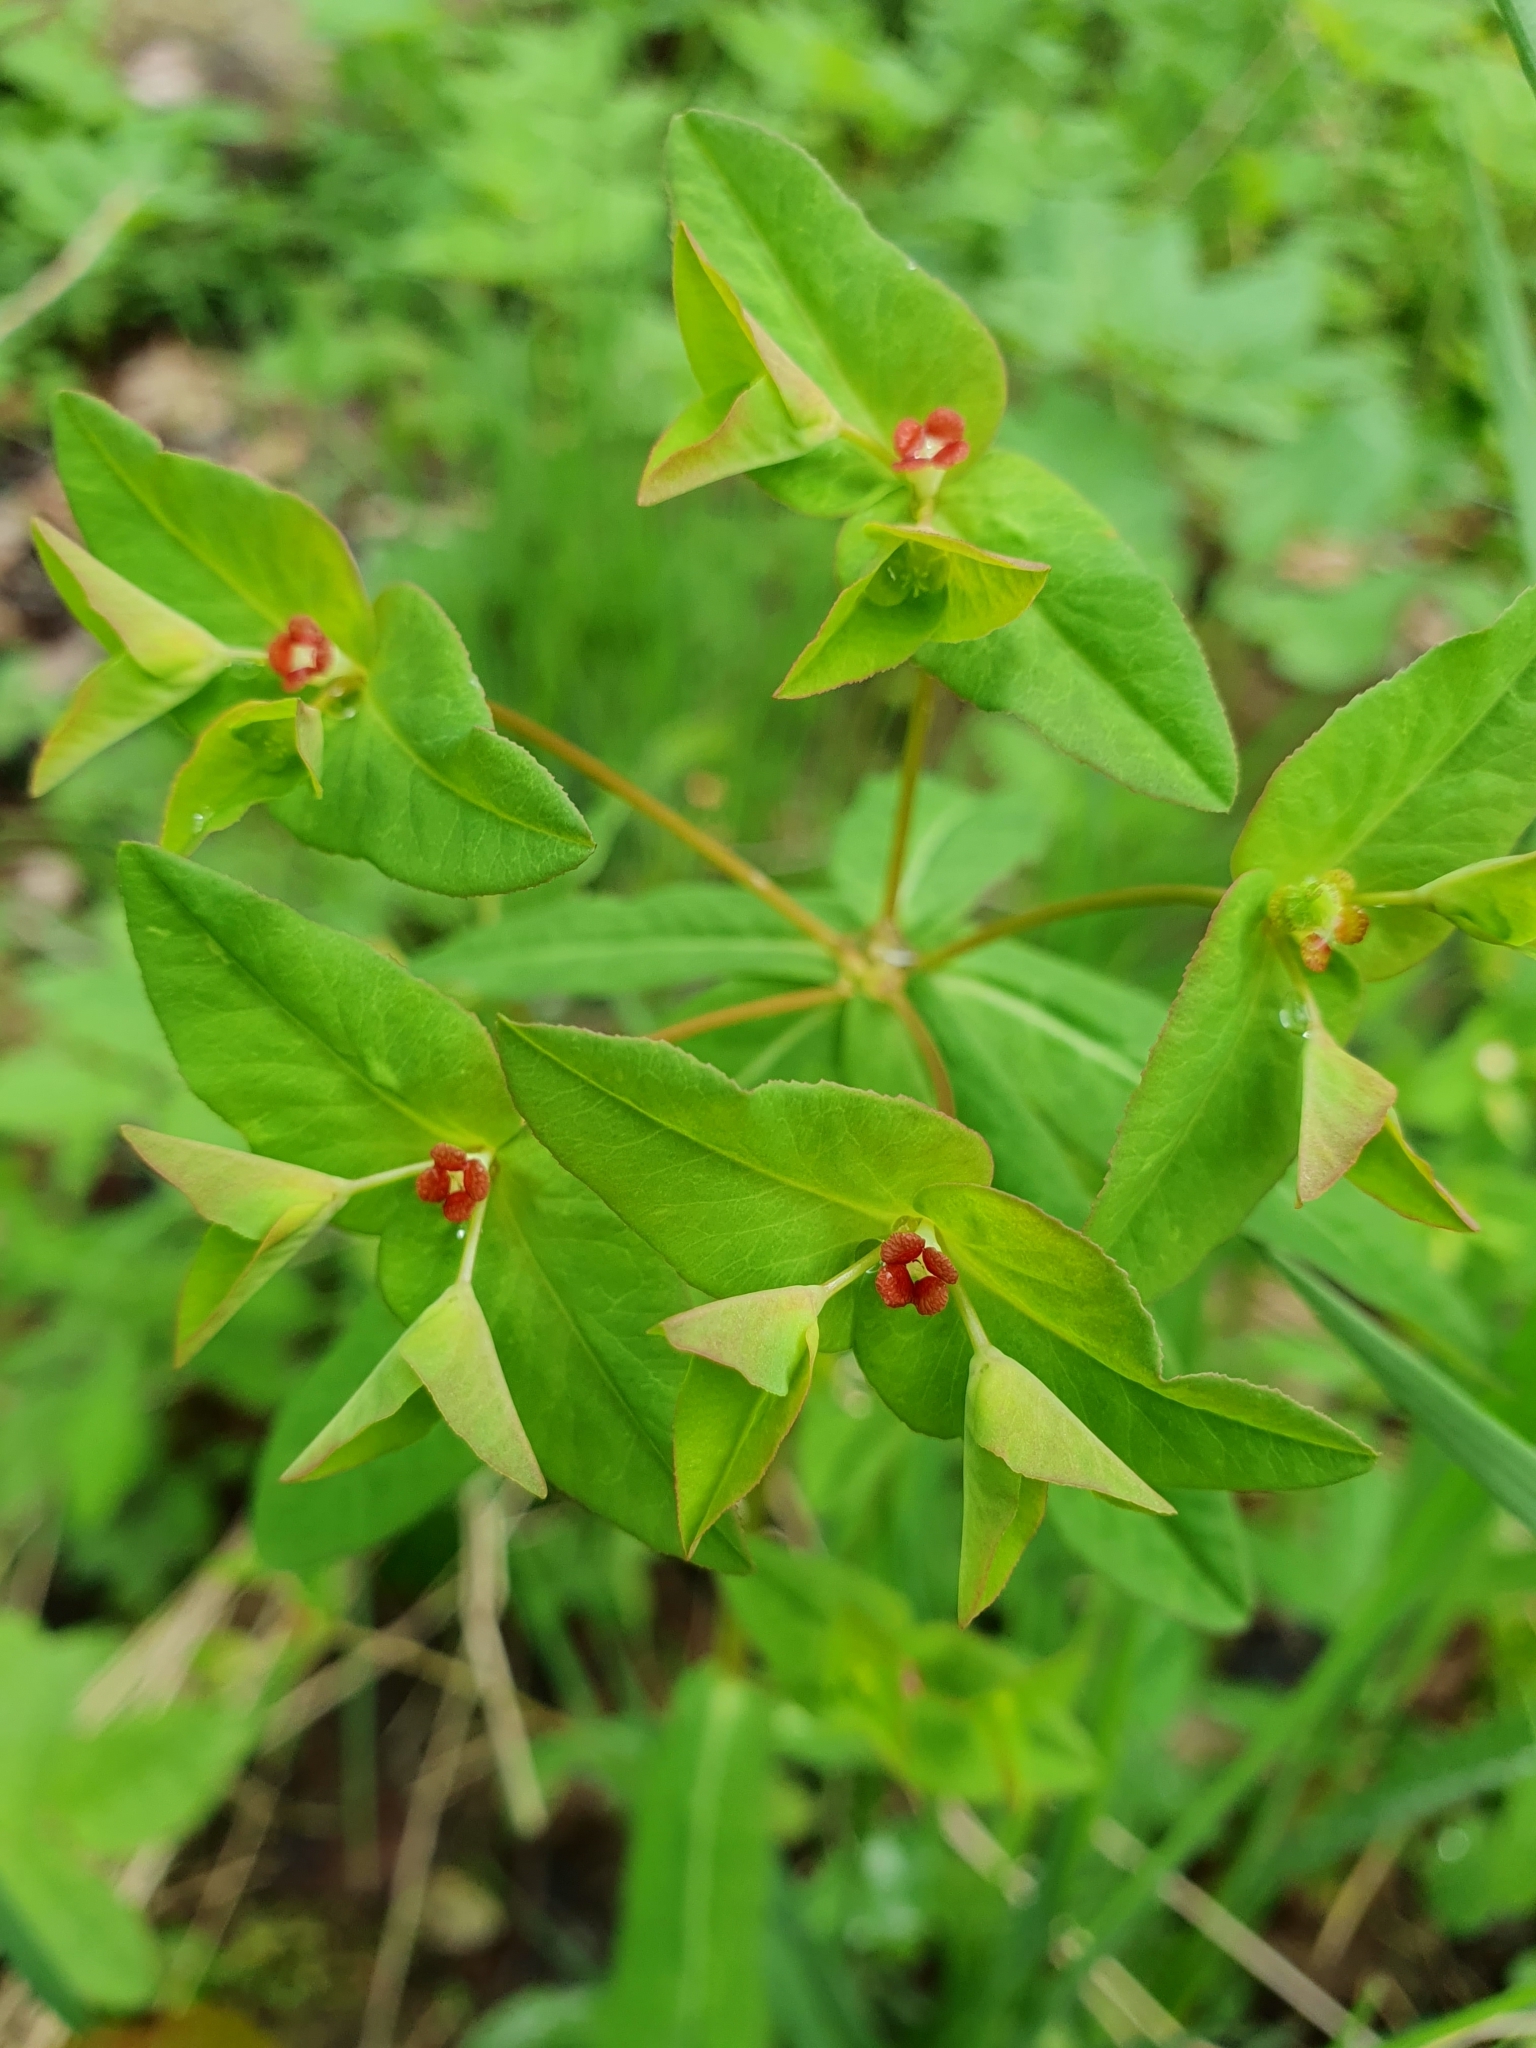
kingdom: Plantae
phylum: Tracheophyta
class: Magnoliopsida
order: Malpighiales
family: Euphorbiaceae
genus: Euphorbia
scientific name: Euphorbia dulcis
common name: Sweet spurge
